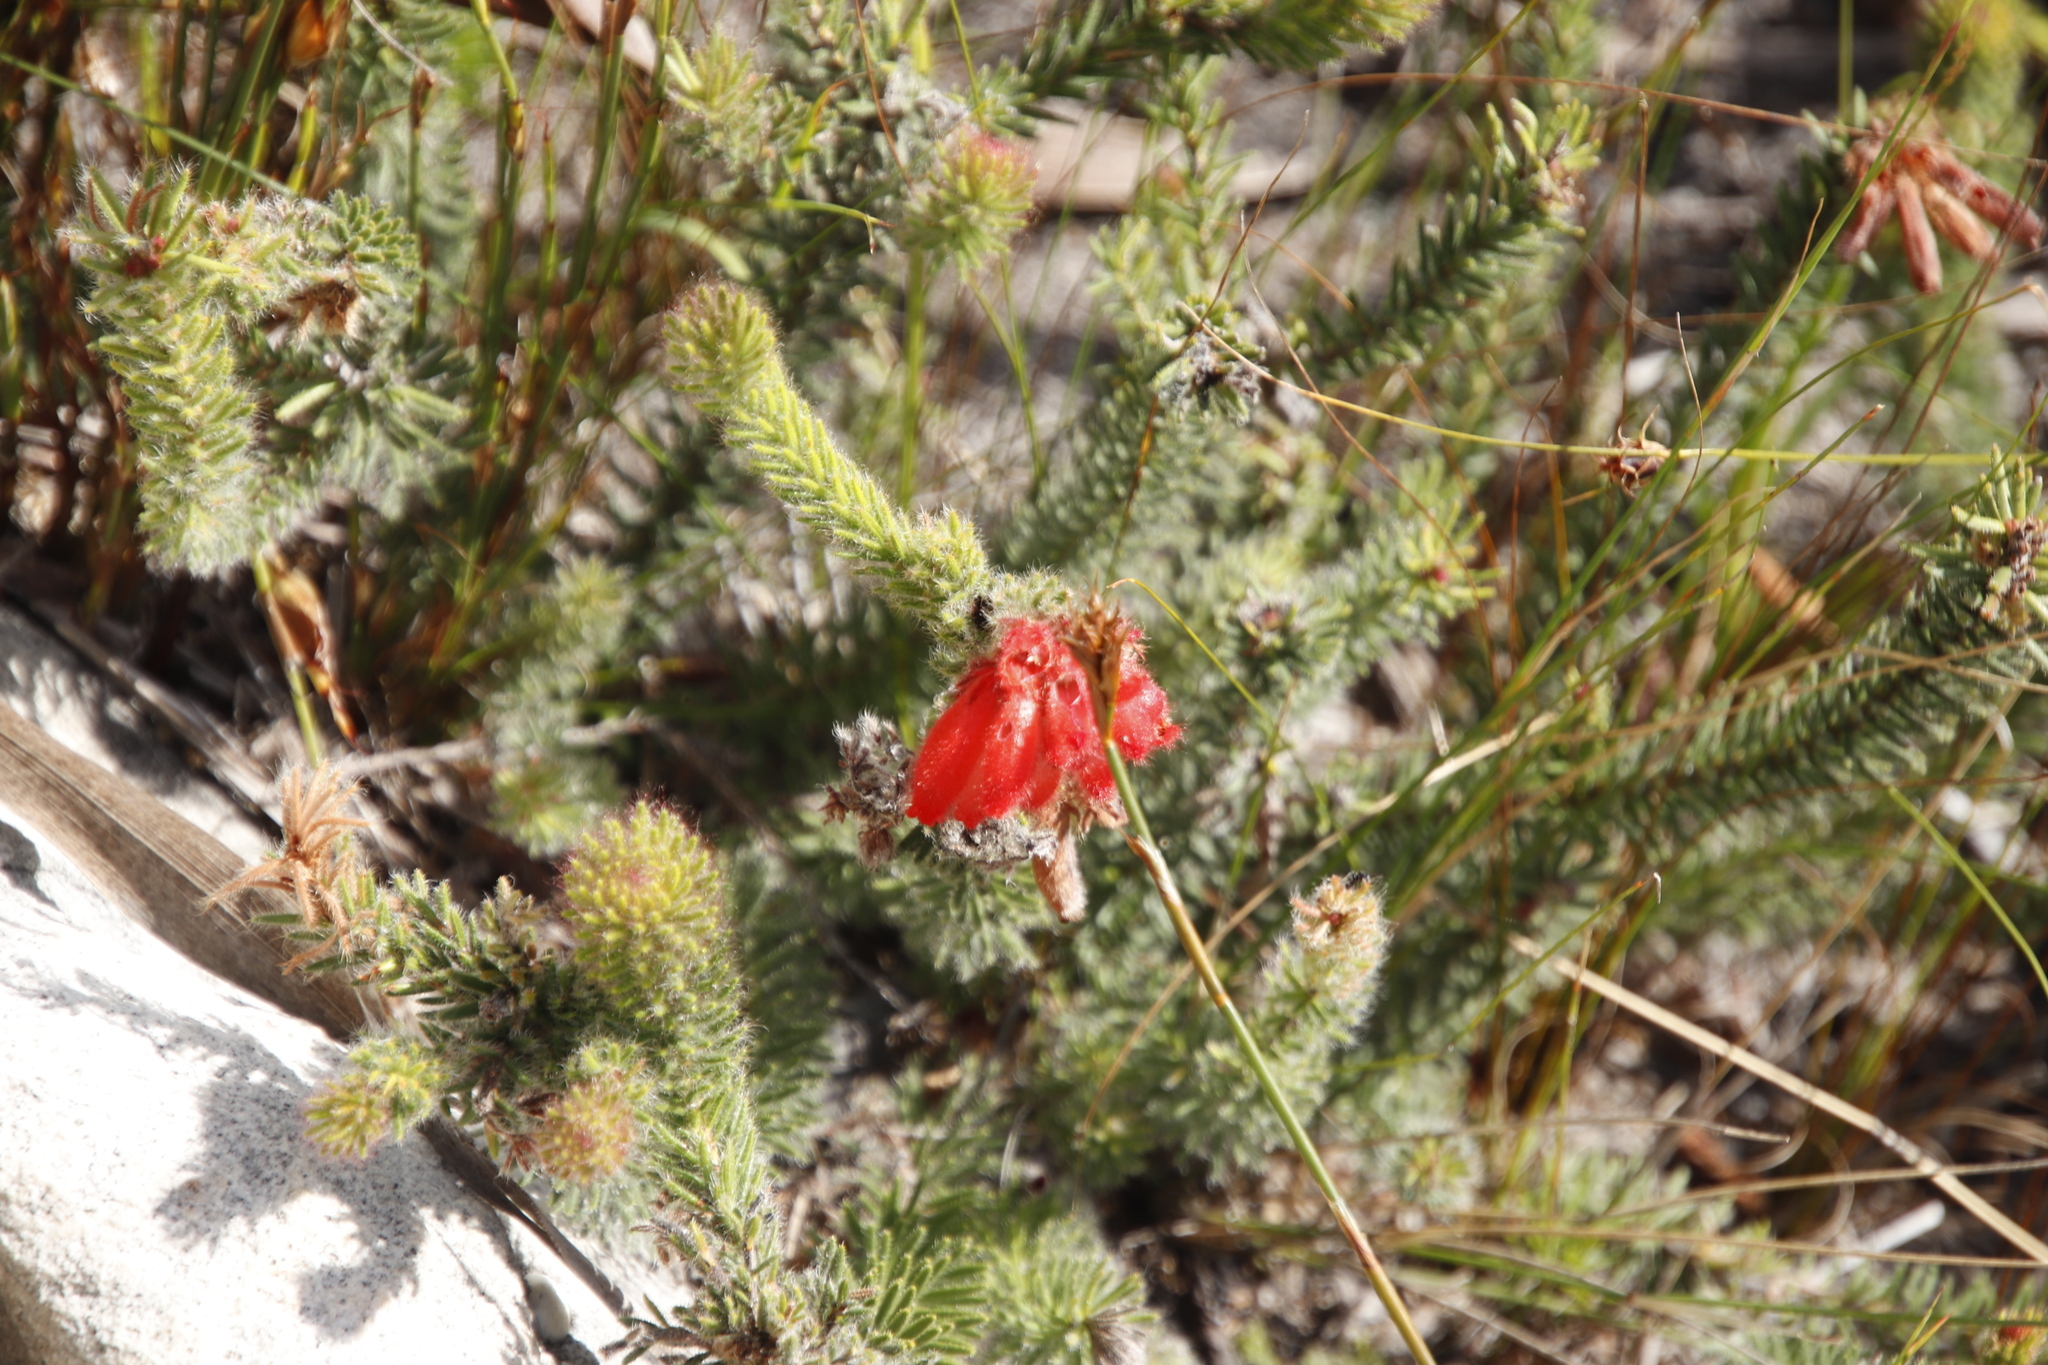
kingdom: Plantae
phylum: Tracheophyta
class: Magnoliopsida
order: Ericales
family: Ericaceae
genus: Erica
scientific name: Erica cerinthoides
